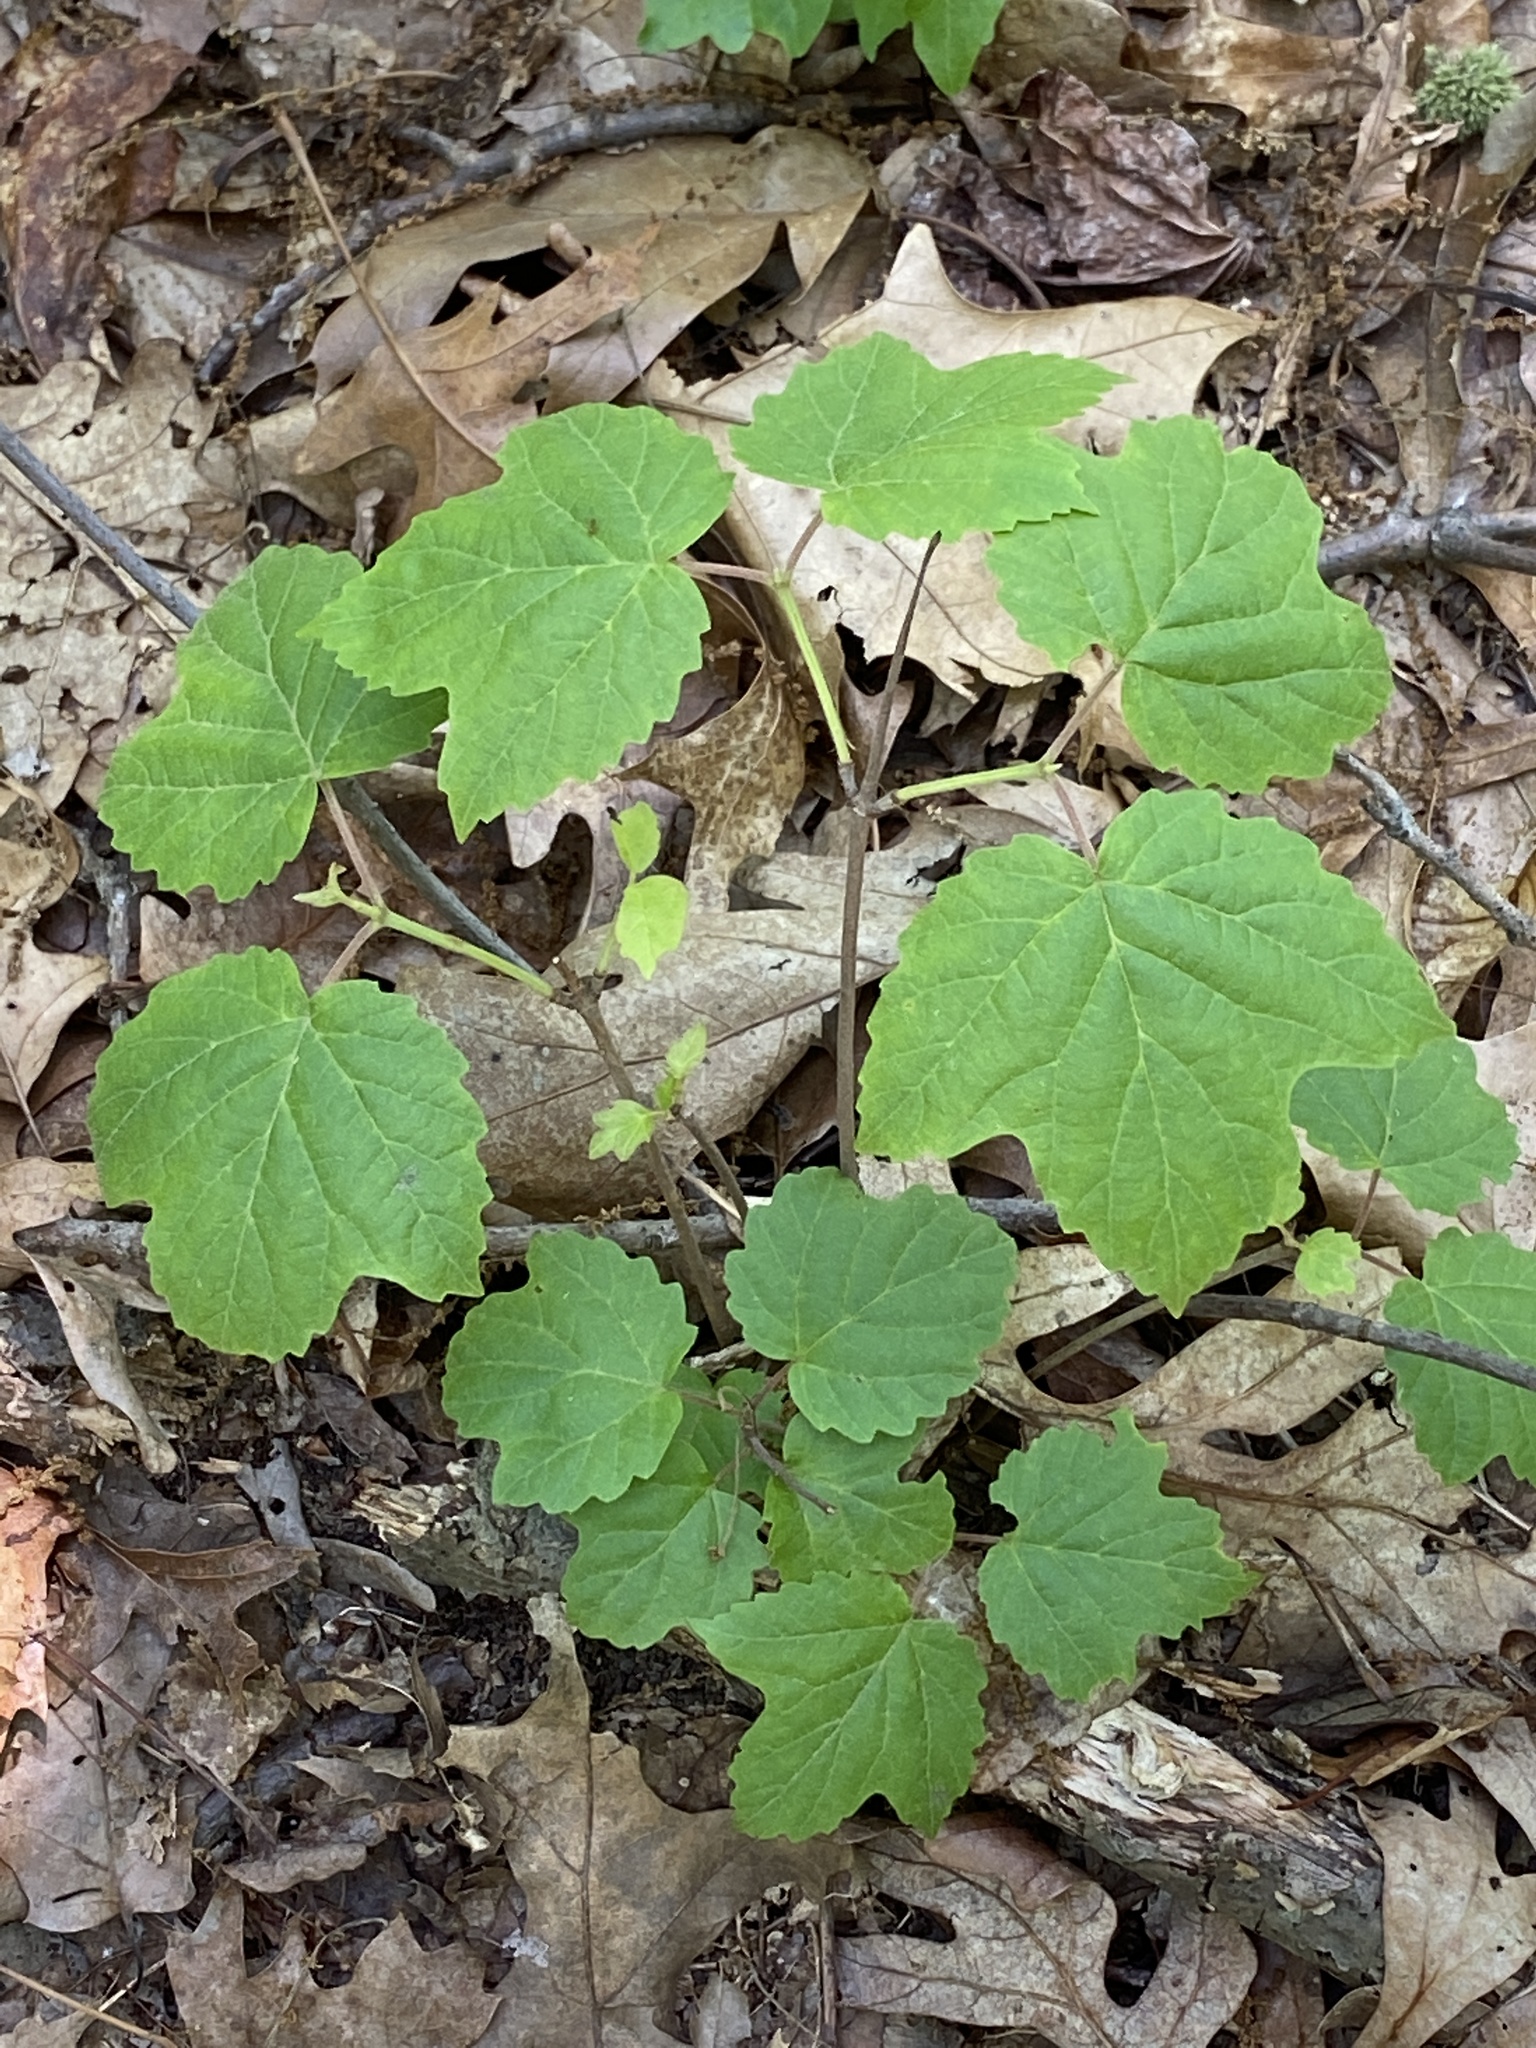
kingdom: Plantae
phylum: Tracheophyta
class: Magnoliopsida
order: Dipsacales
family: Viburnaceae
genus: Viburnum
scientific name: Viburnum acerifolium
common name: Dockmackie
